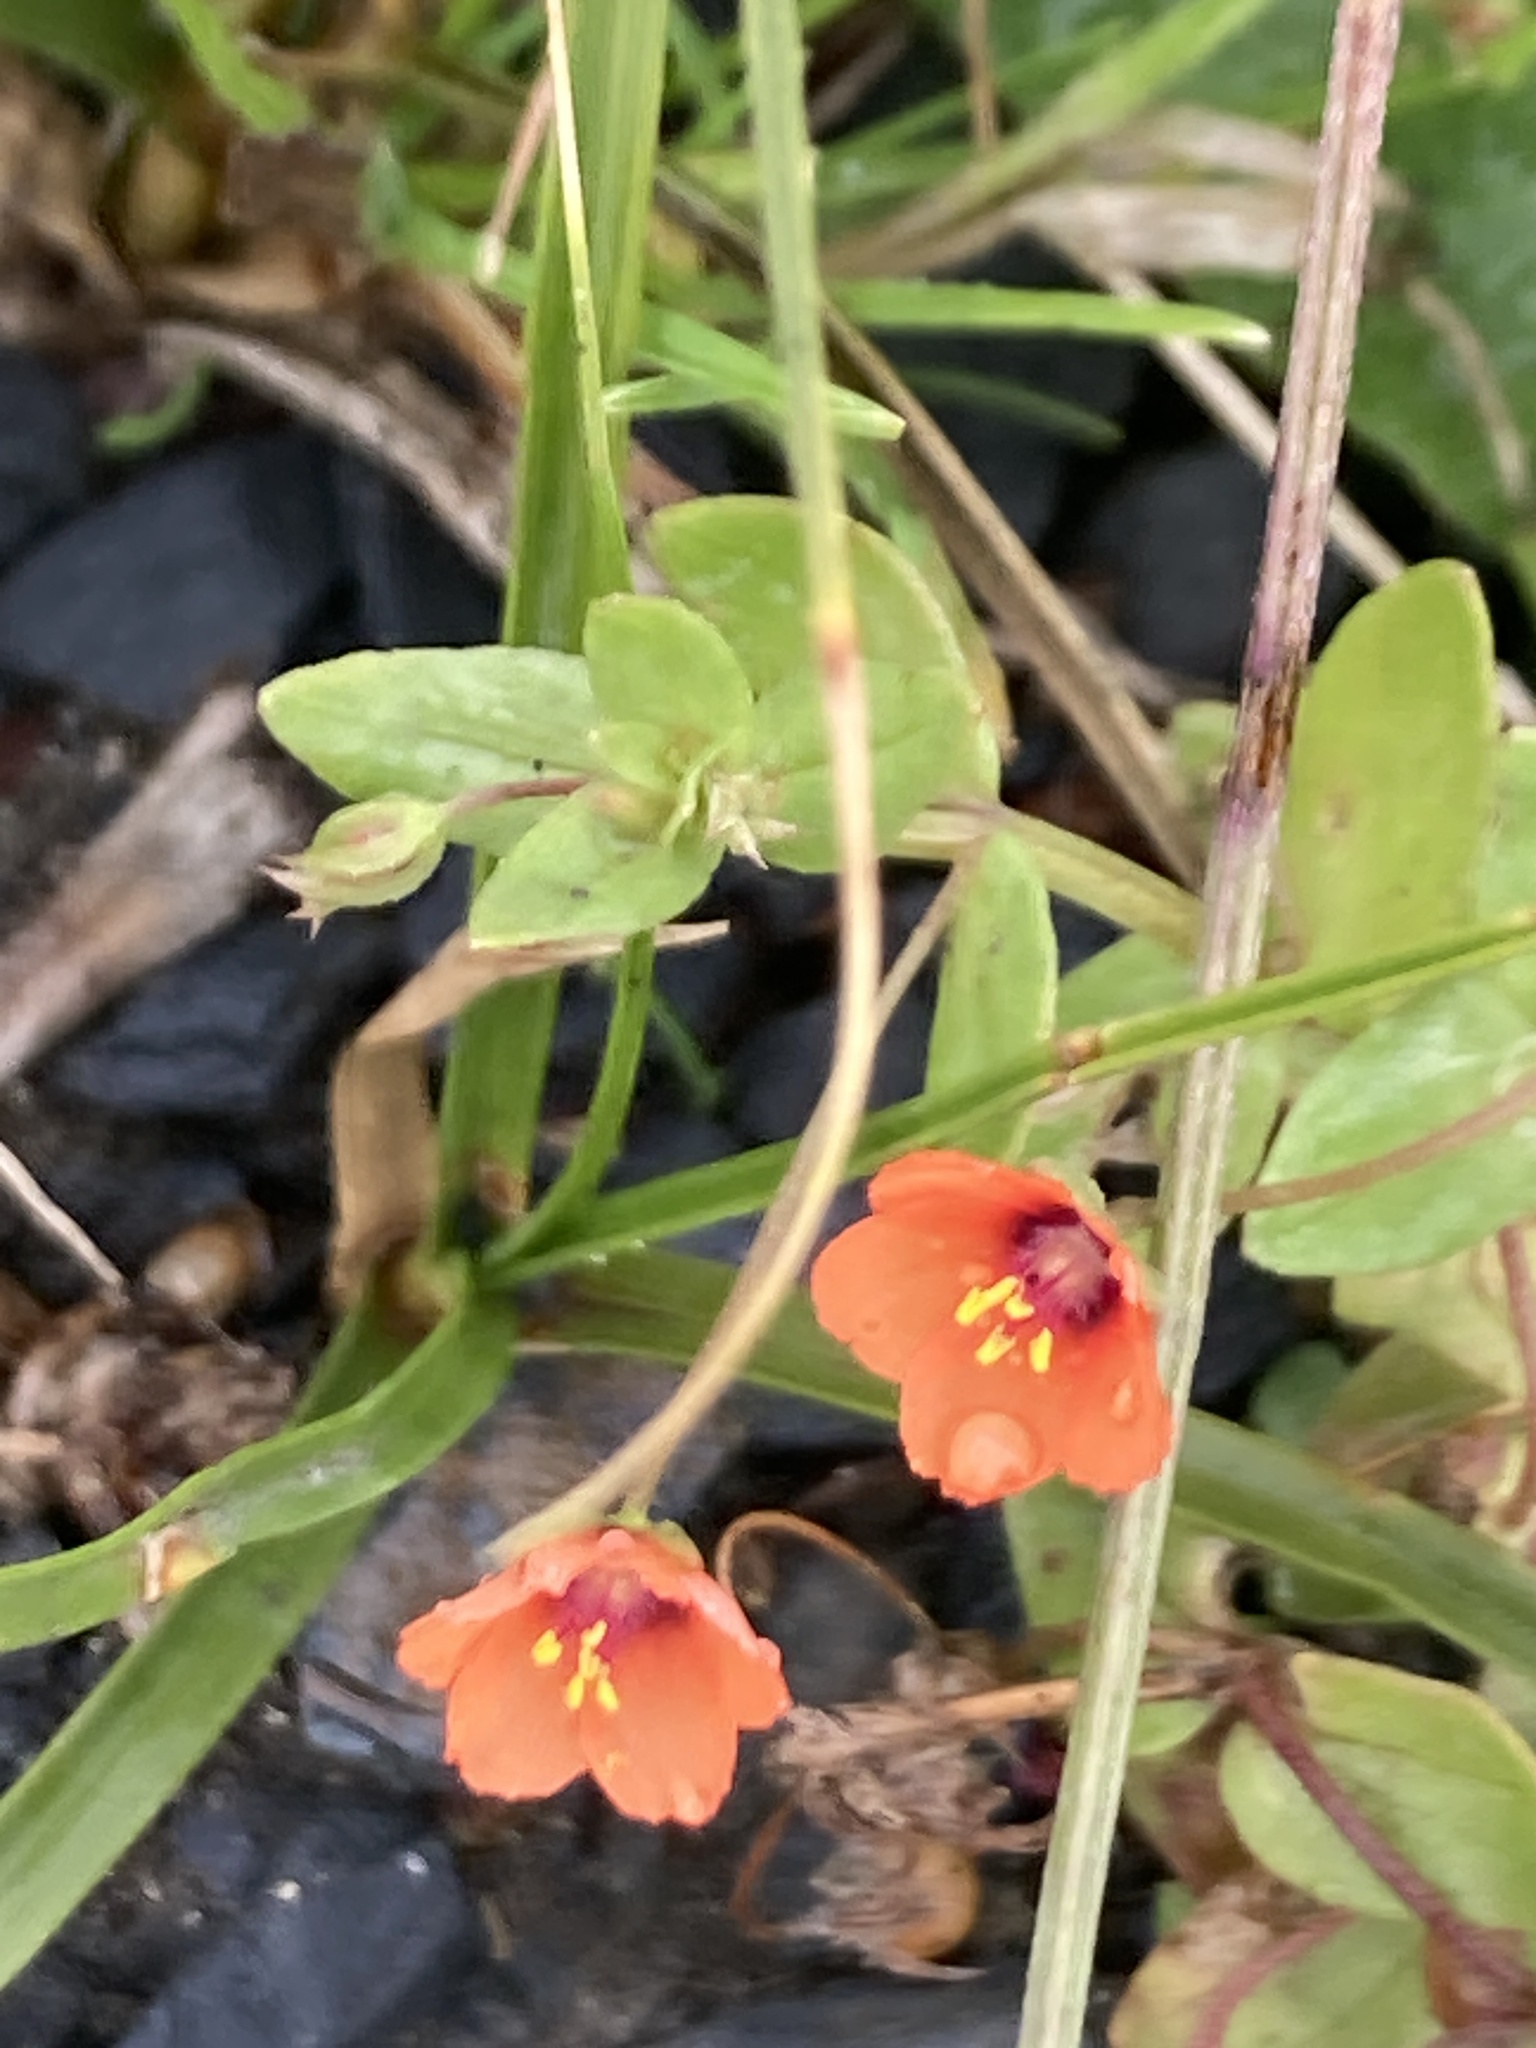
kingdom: Plantae
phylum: Tracheophyta
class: Magnoliopsida
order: Ericales
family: Primulaceae
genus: Lysimachia
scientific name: Lysimachia arvensis
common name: Scarlet pimpernel
